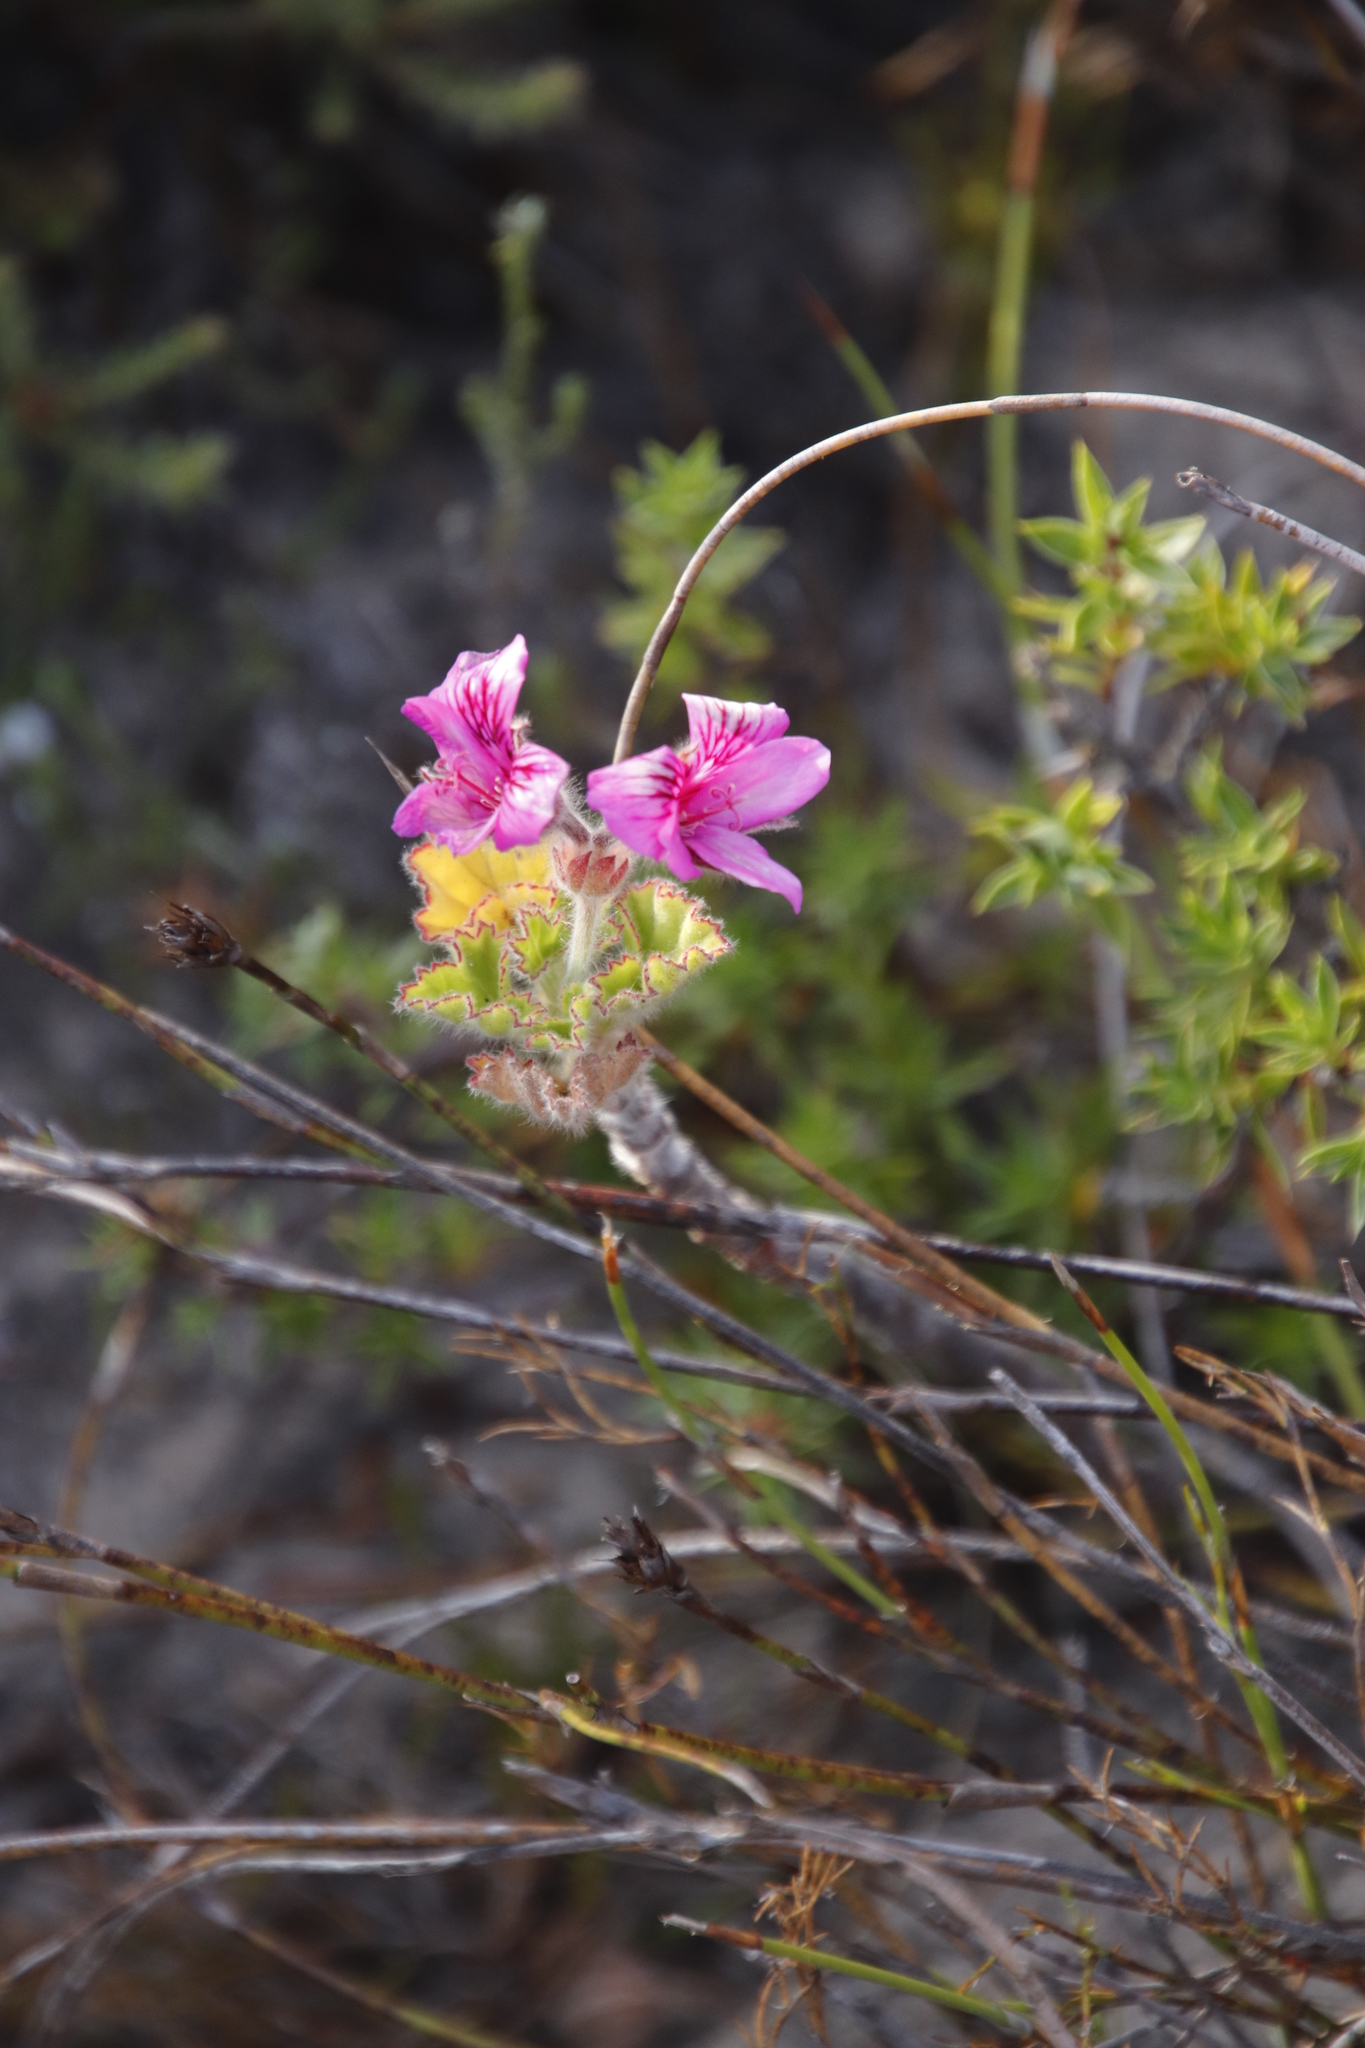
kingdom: Plantae
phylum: Tracheophyta
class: Magnoliopsida
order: Geraniales
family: Geraniaceae
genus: Pelargonium
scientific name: Pelargonium cucullatum
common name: Tree pelargonium
